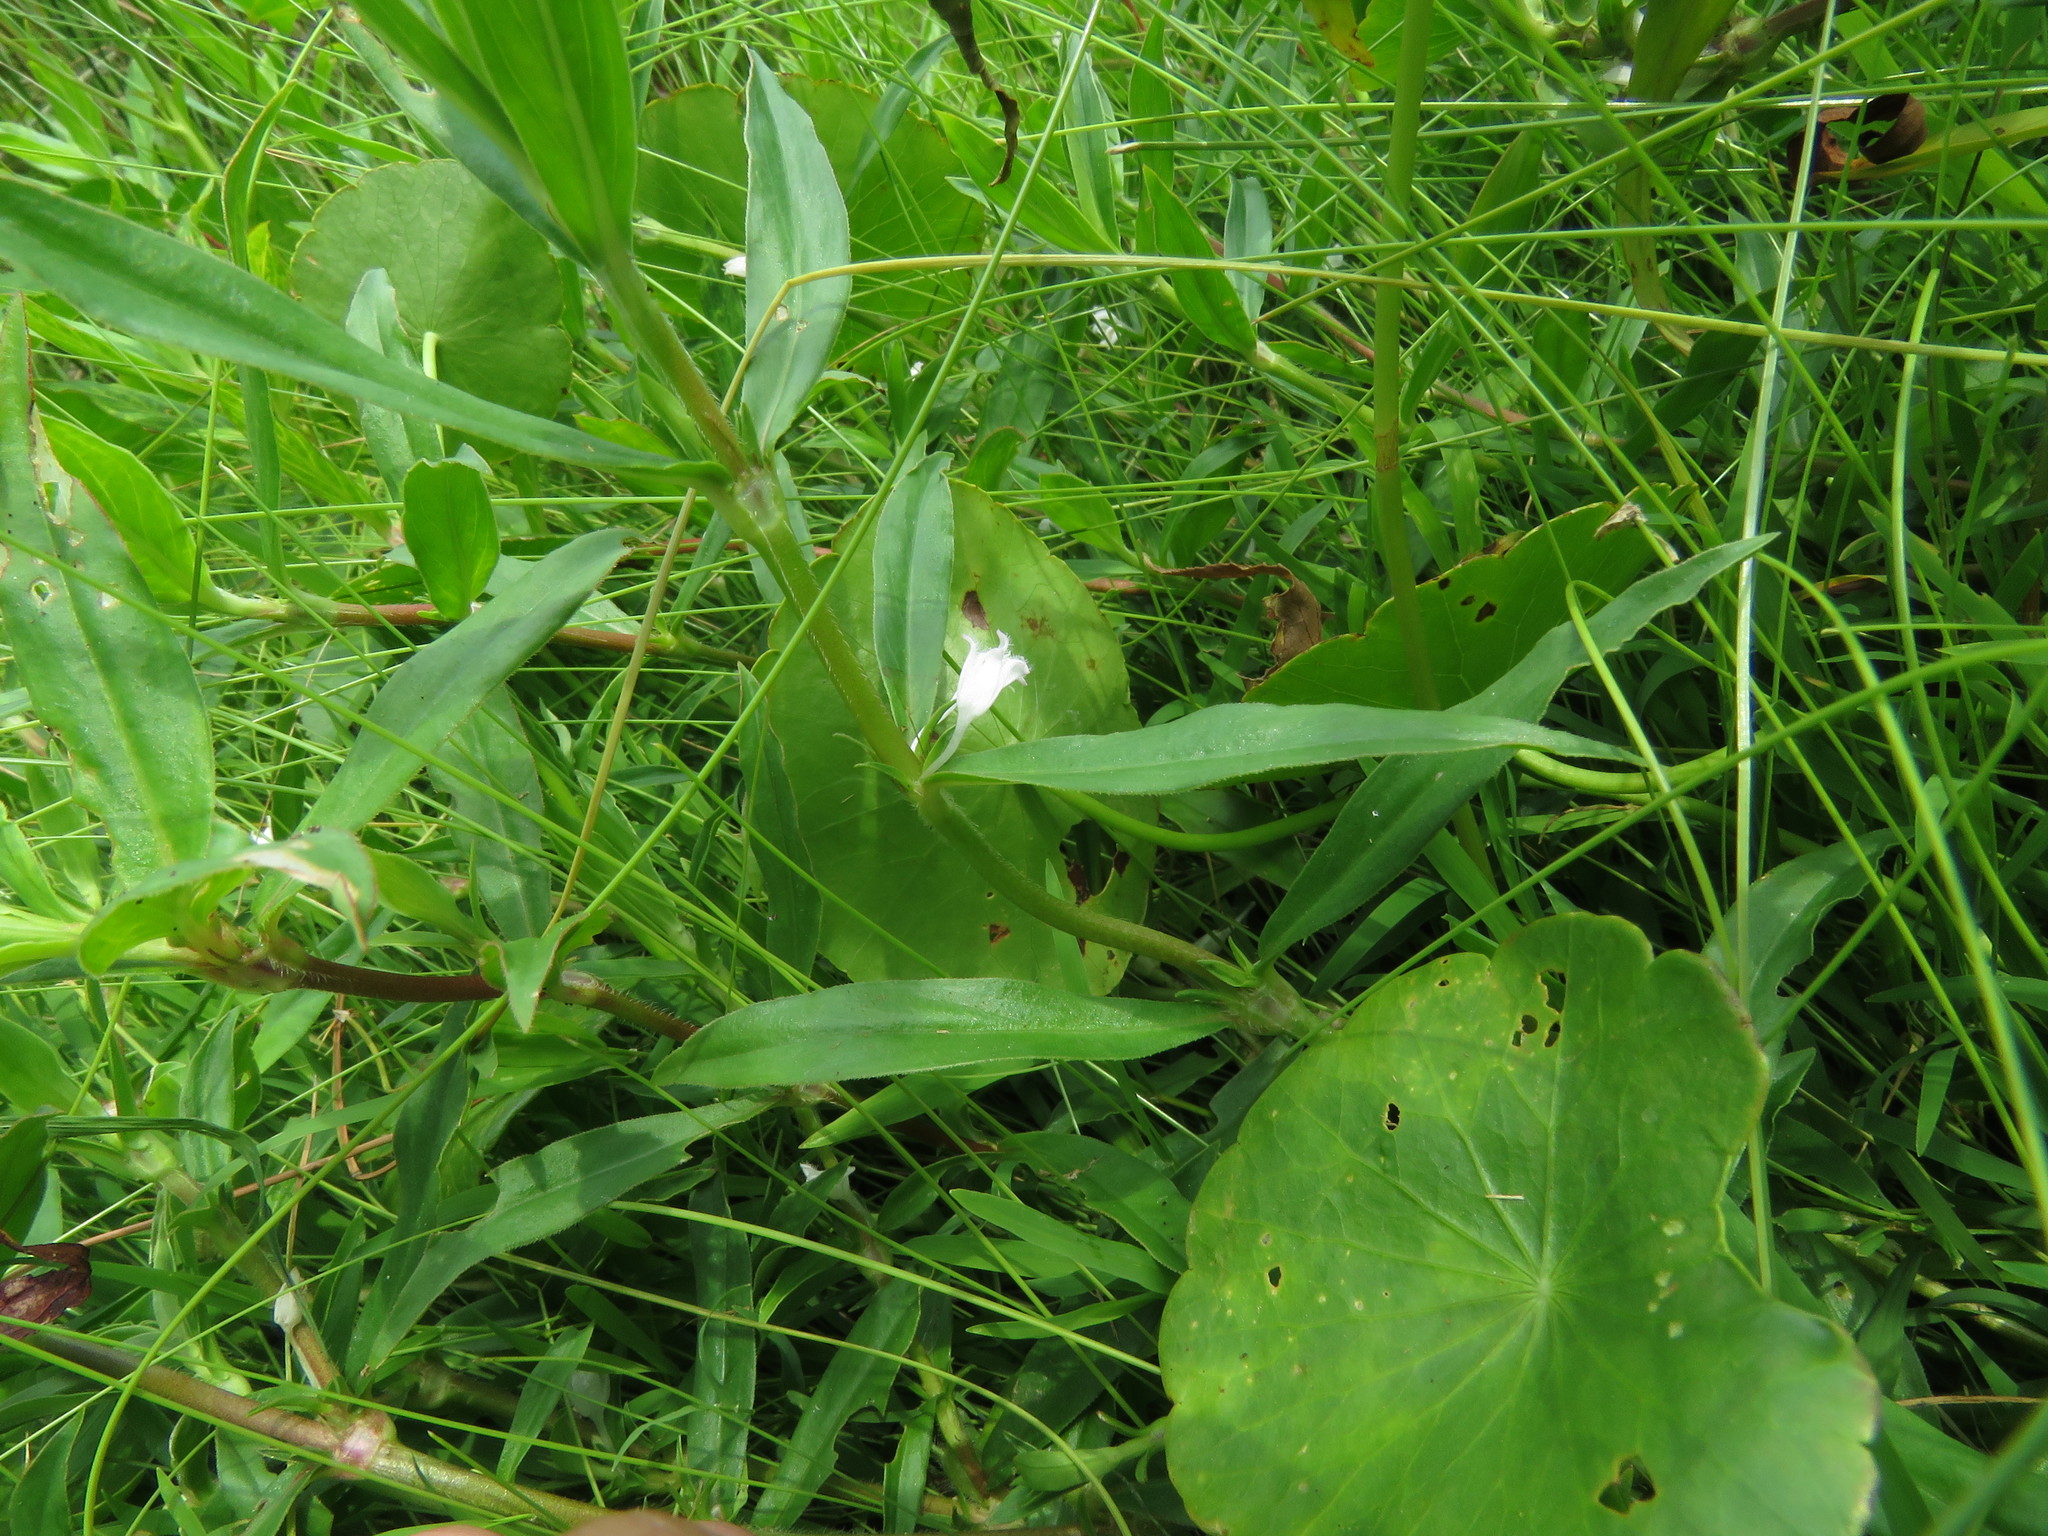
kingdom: Plantae
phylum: Tracheophyta
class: Magnoliopsida
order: Gentianales
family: Rubiaceae
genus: Diodia
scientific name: Diodia virginiana
